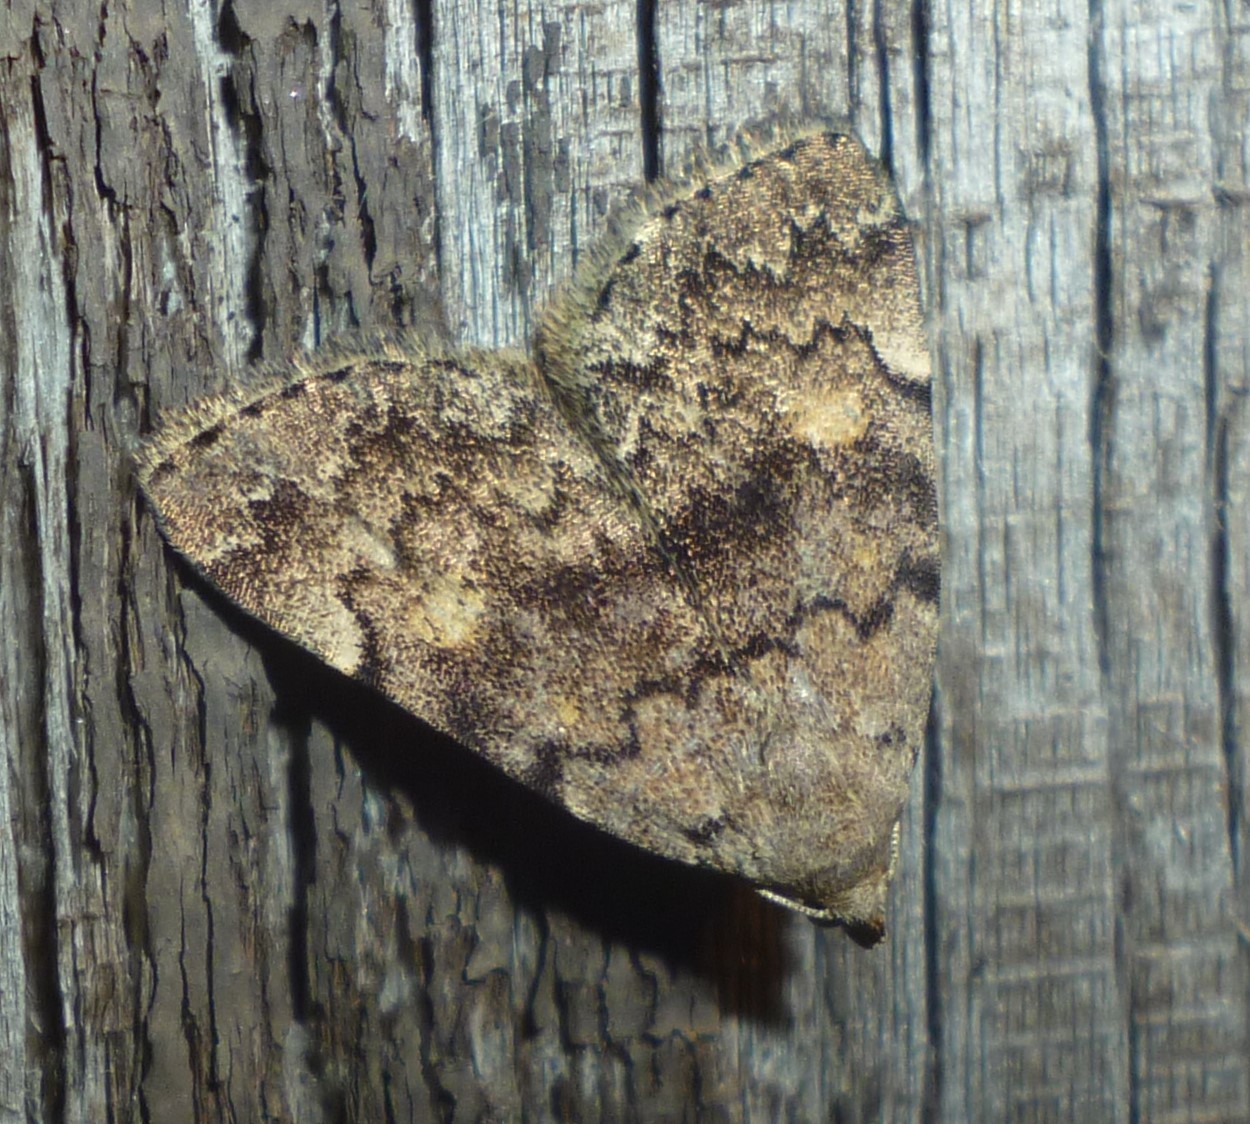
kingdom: Animalia
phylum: Arthropoda
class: Insecta
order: Lepidoptera
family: Erebidae
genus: Idia
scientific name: Idia aemula
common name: Common idia moth
